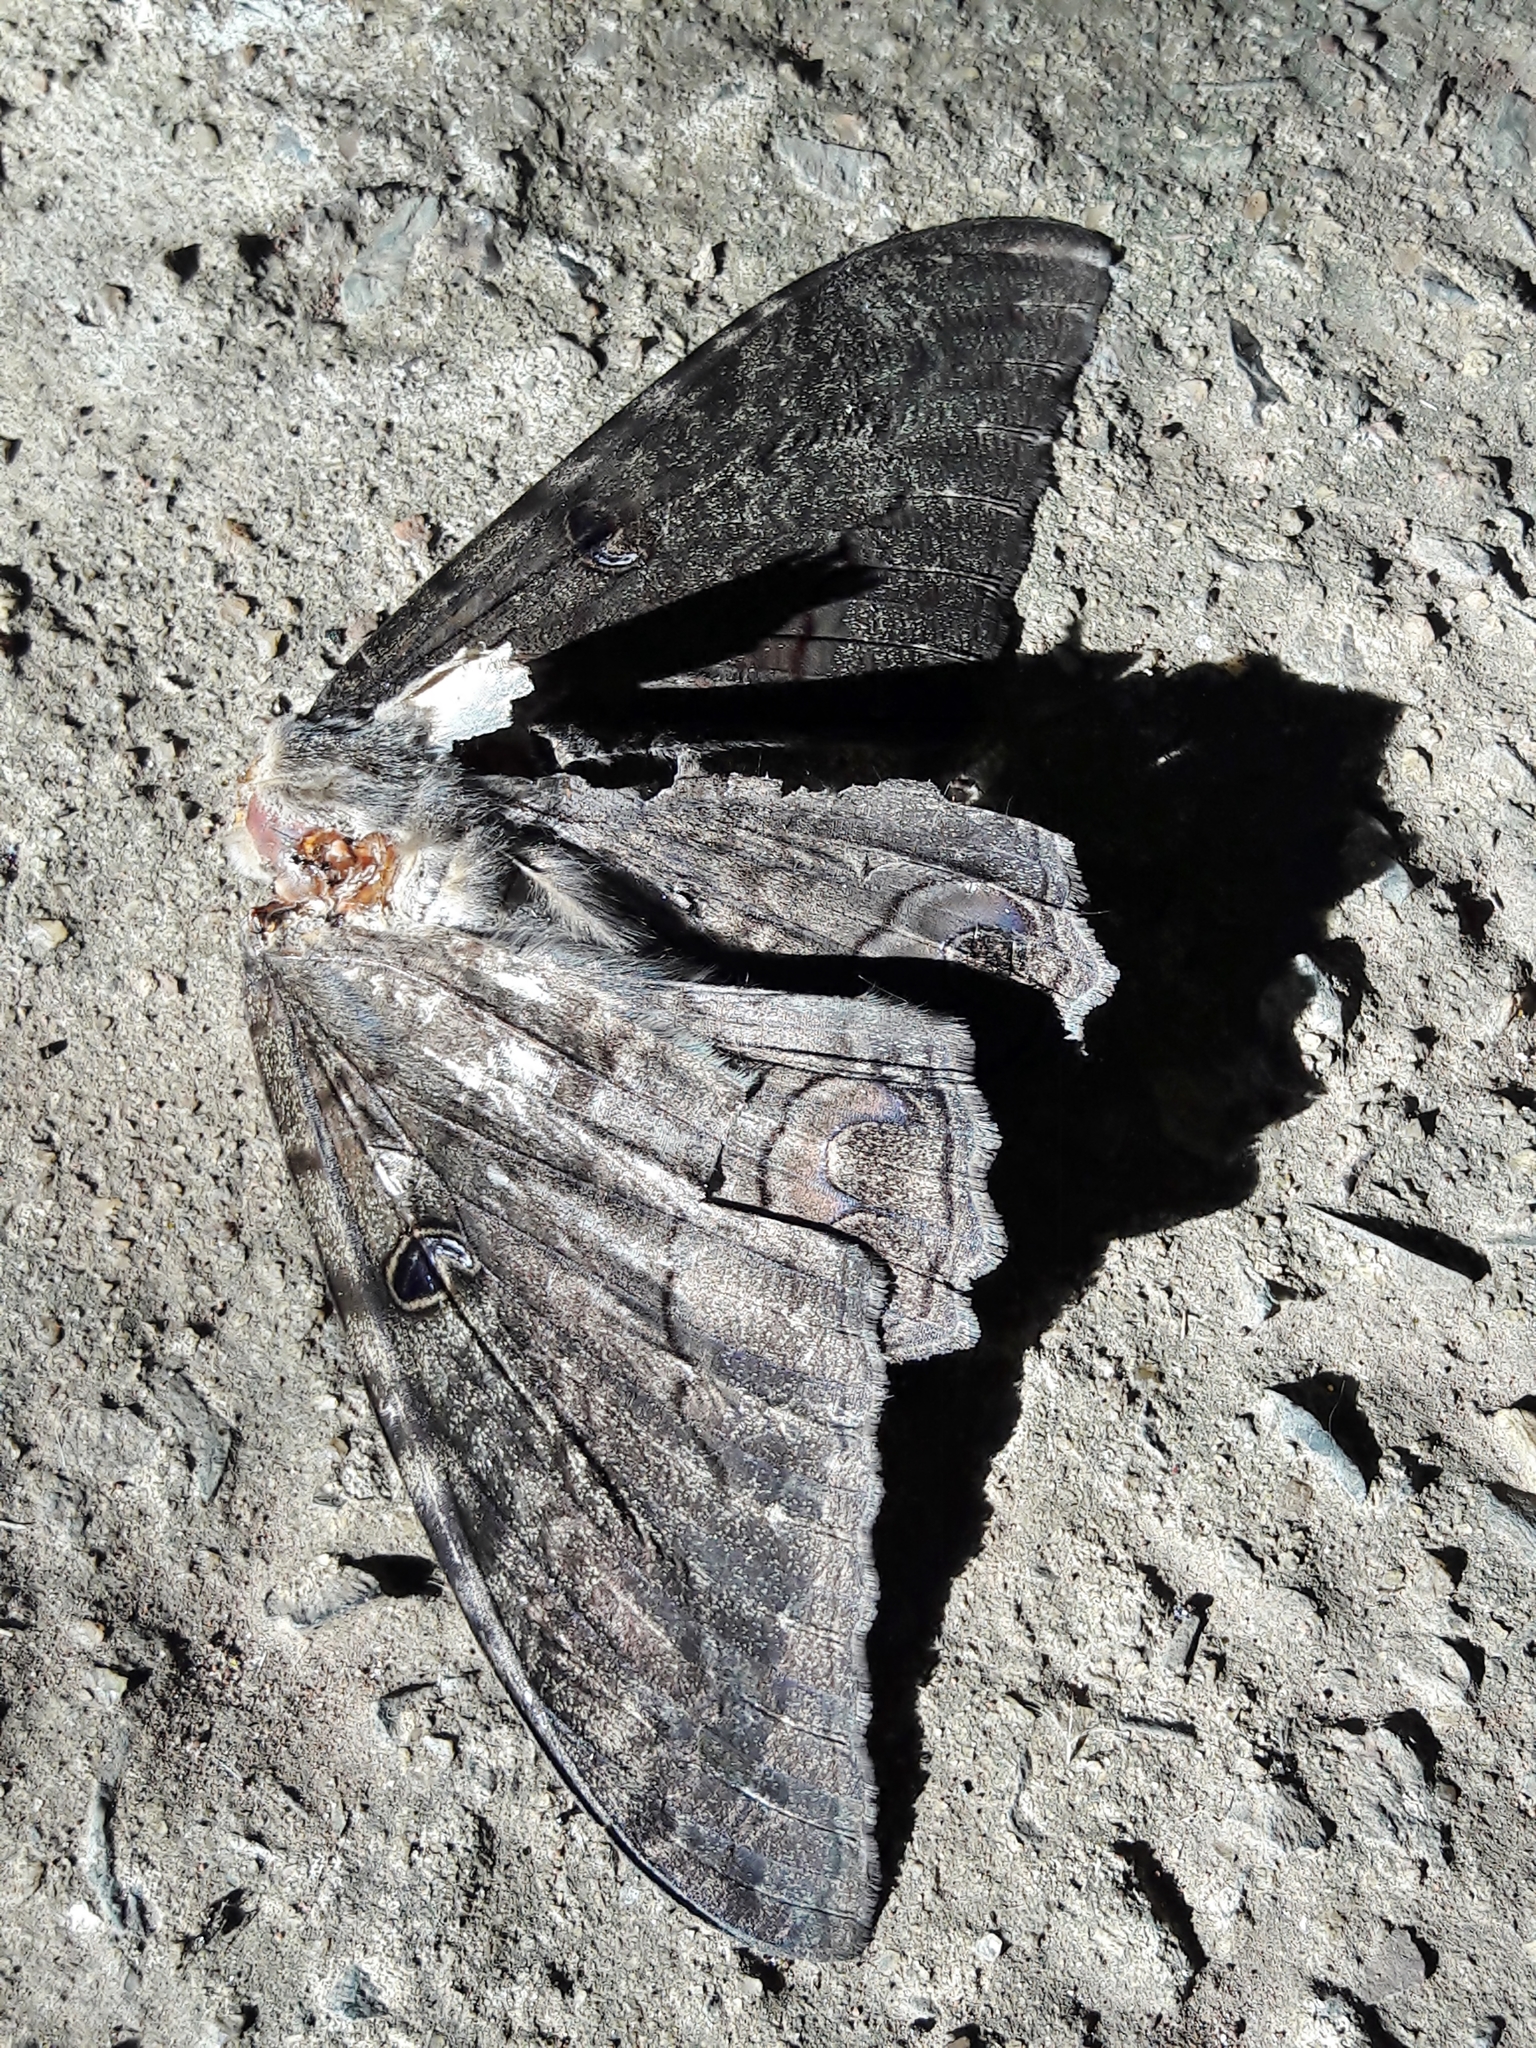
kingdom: Animalia
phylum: Arthropoda
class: Insecta
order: Lepidoptera
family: Erebidae
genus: Ascalapha
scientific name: Ascalapha odorata
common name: Black witch
